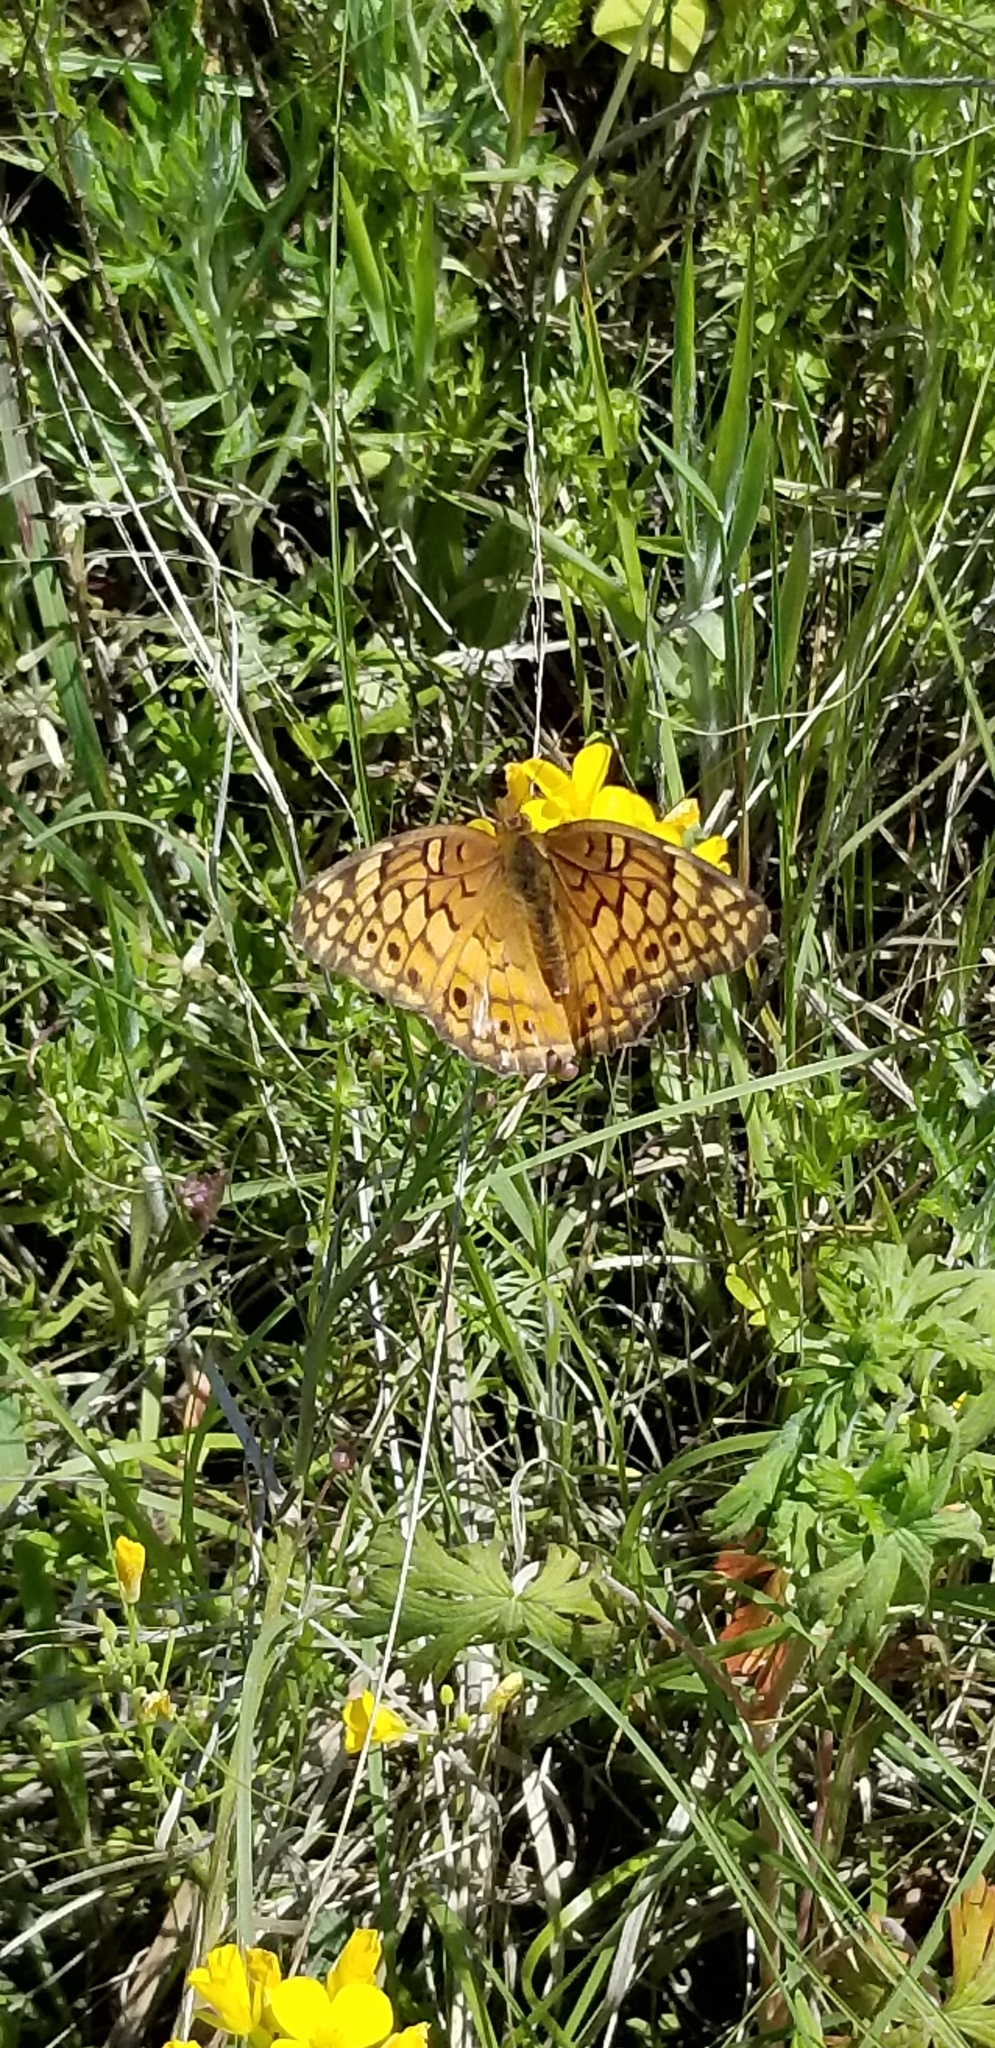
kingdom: Animalia
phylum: Arthropoda
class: Insecta
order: Lepidoptera
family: Nymphalidae
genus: Euptoieta
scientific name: Euptoieta claudia
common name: Variegated fritillary
